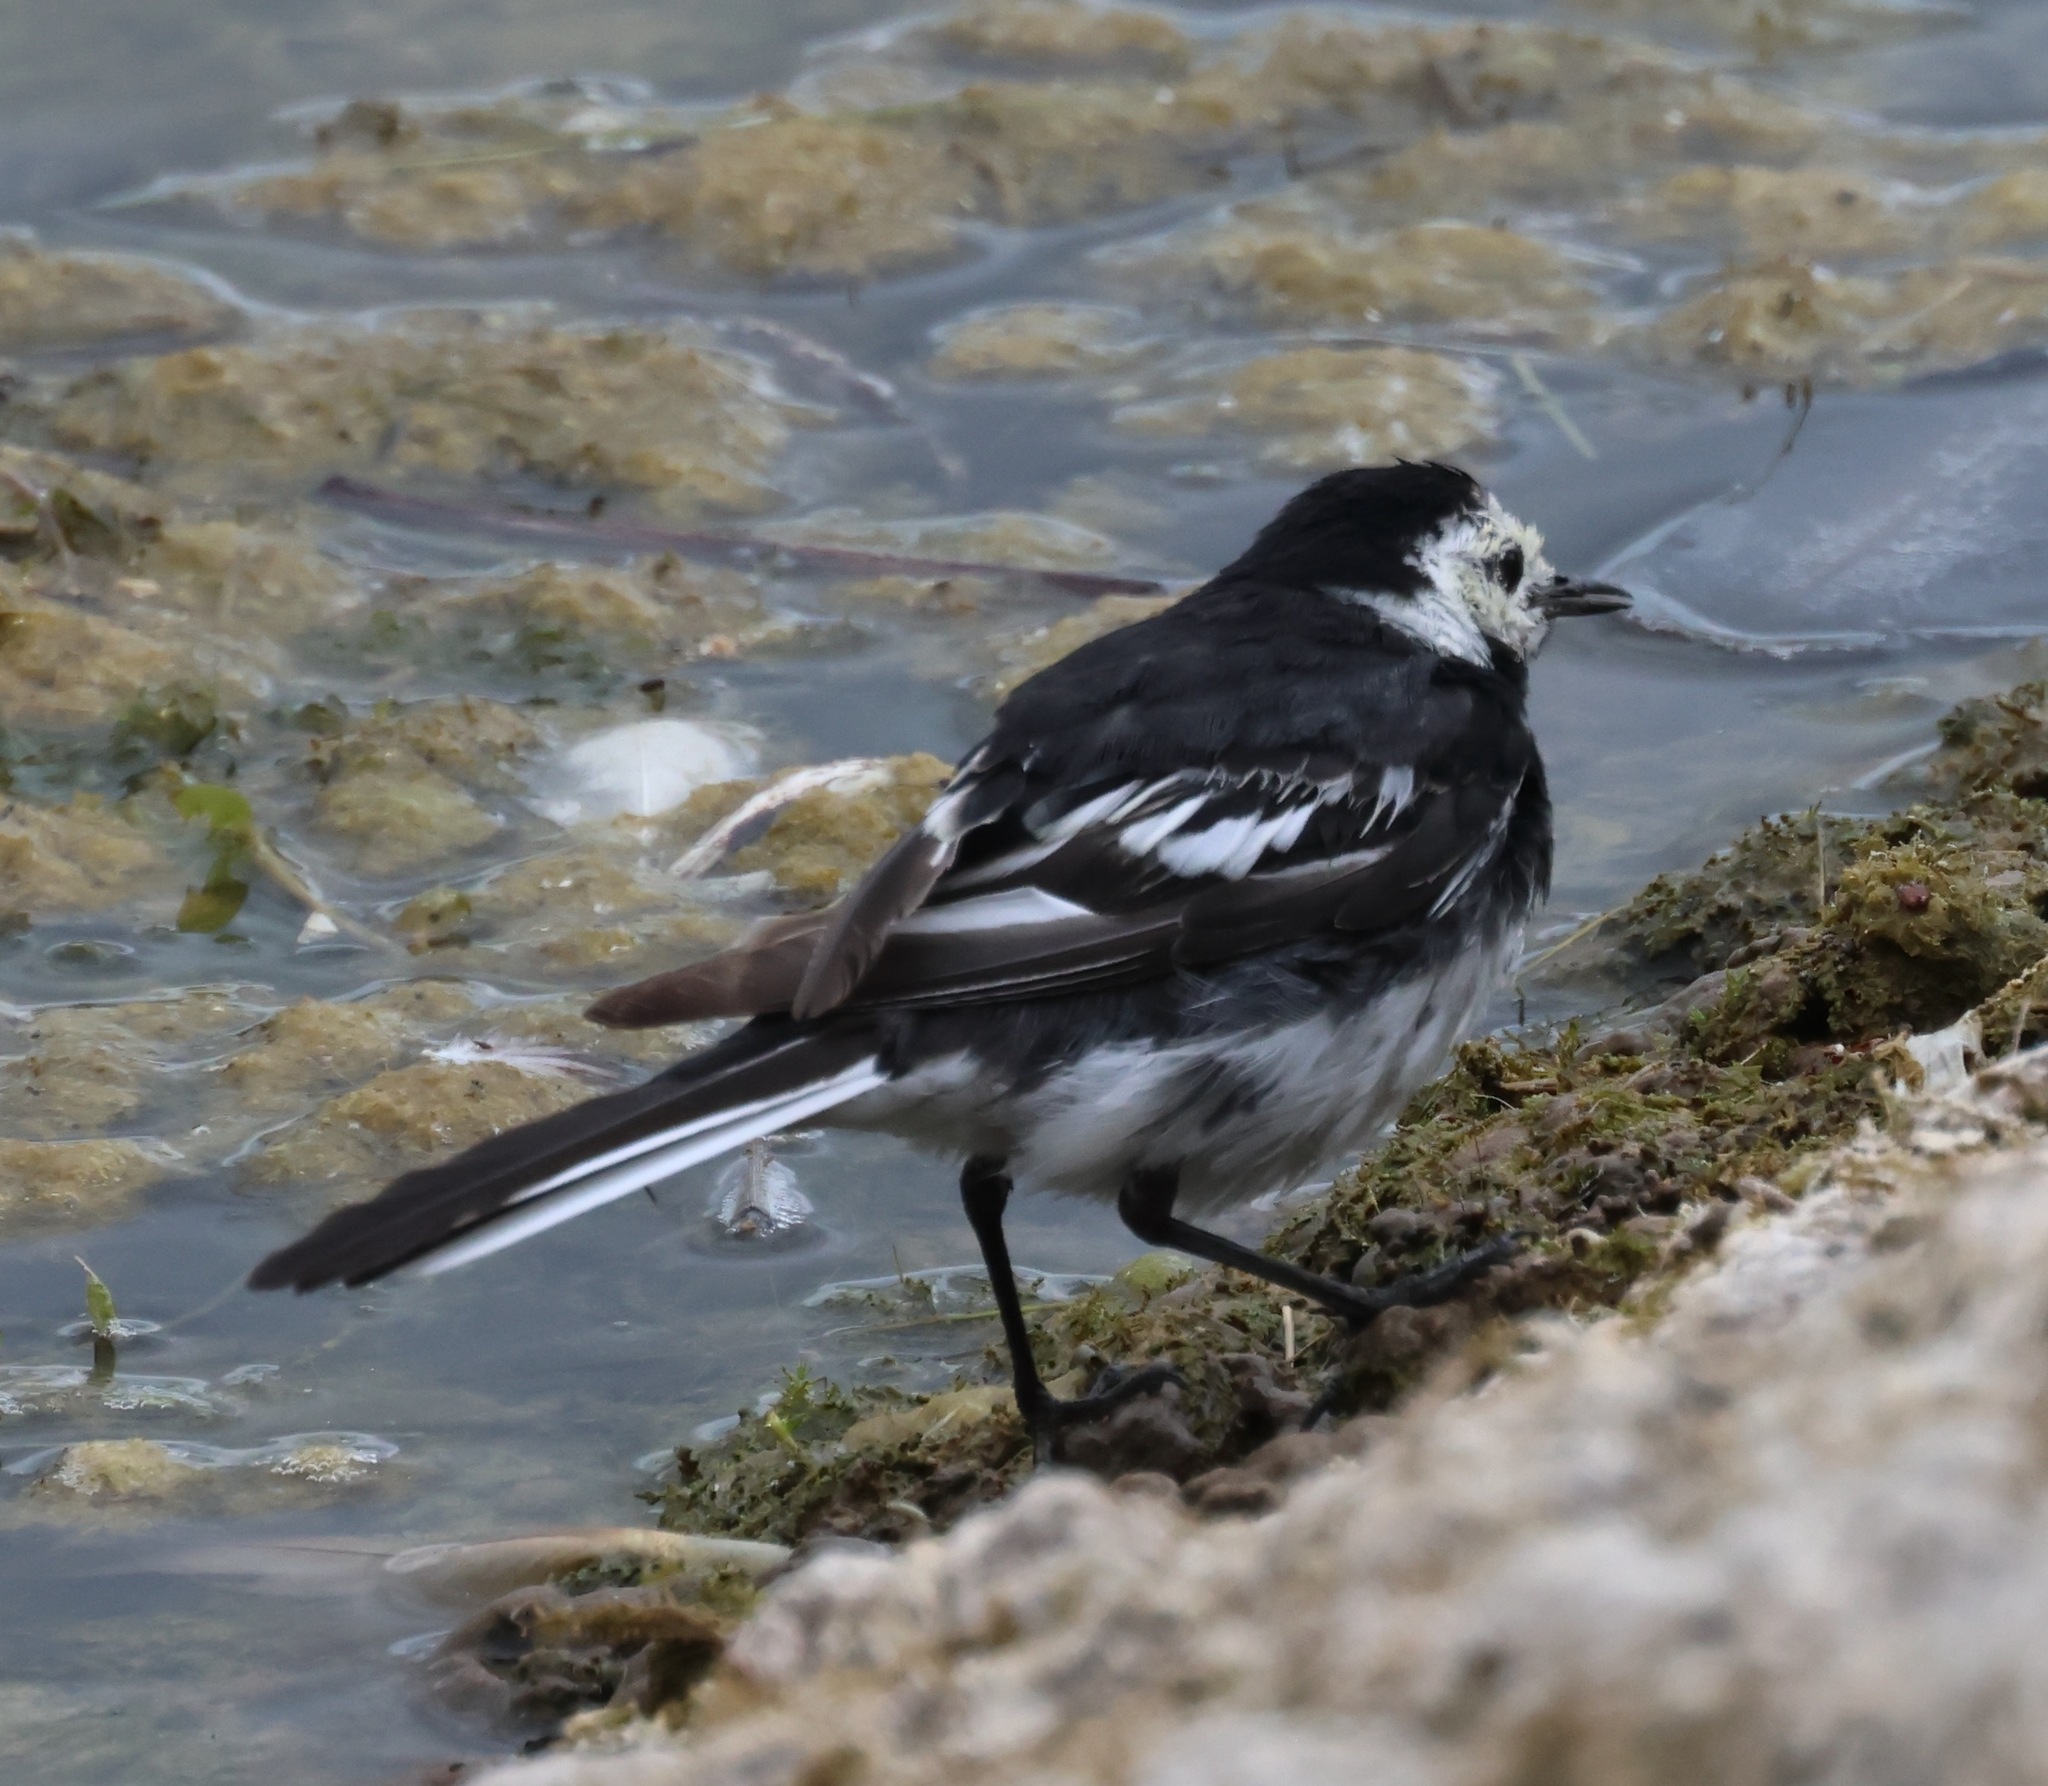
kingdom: Animalia
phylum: Chordata
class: Aves
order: Passeriformes
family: Motacillidae
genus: Motacilla
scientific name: Motacilla alba
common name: White wagtail
